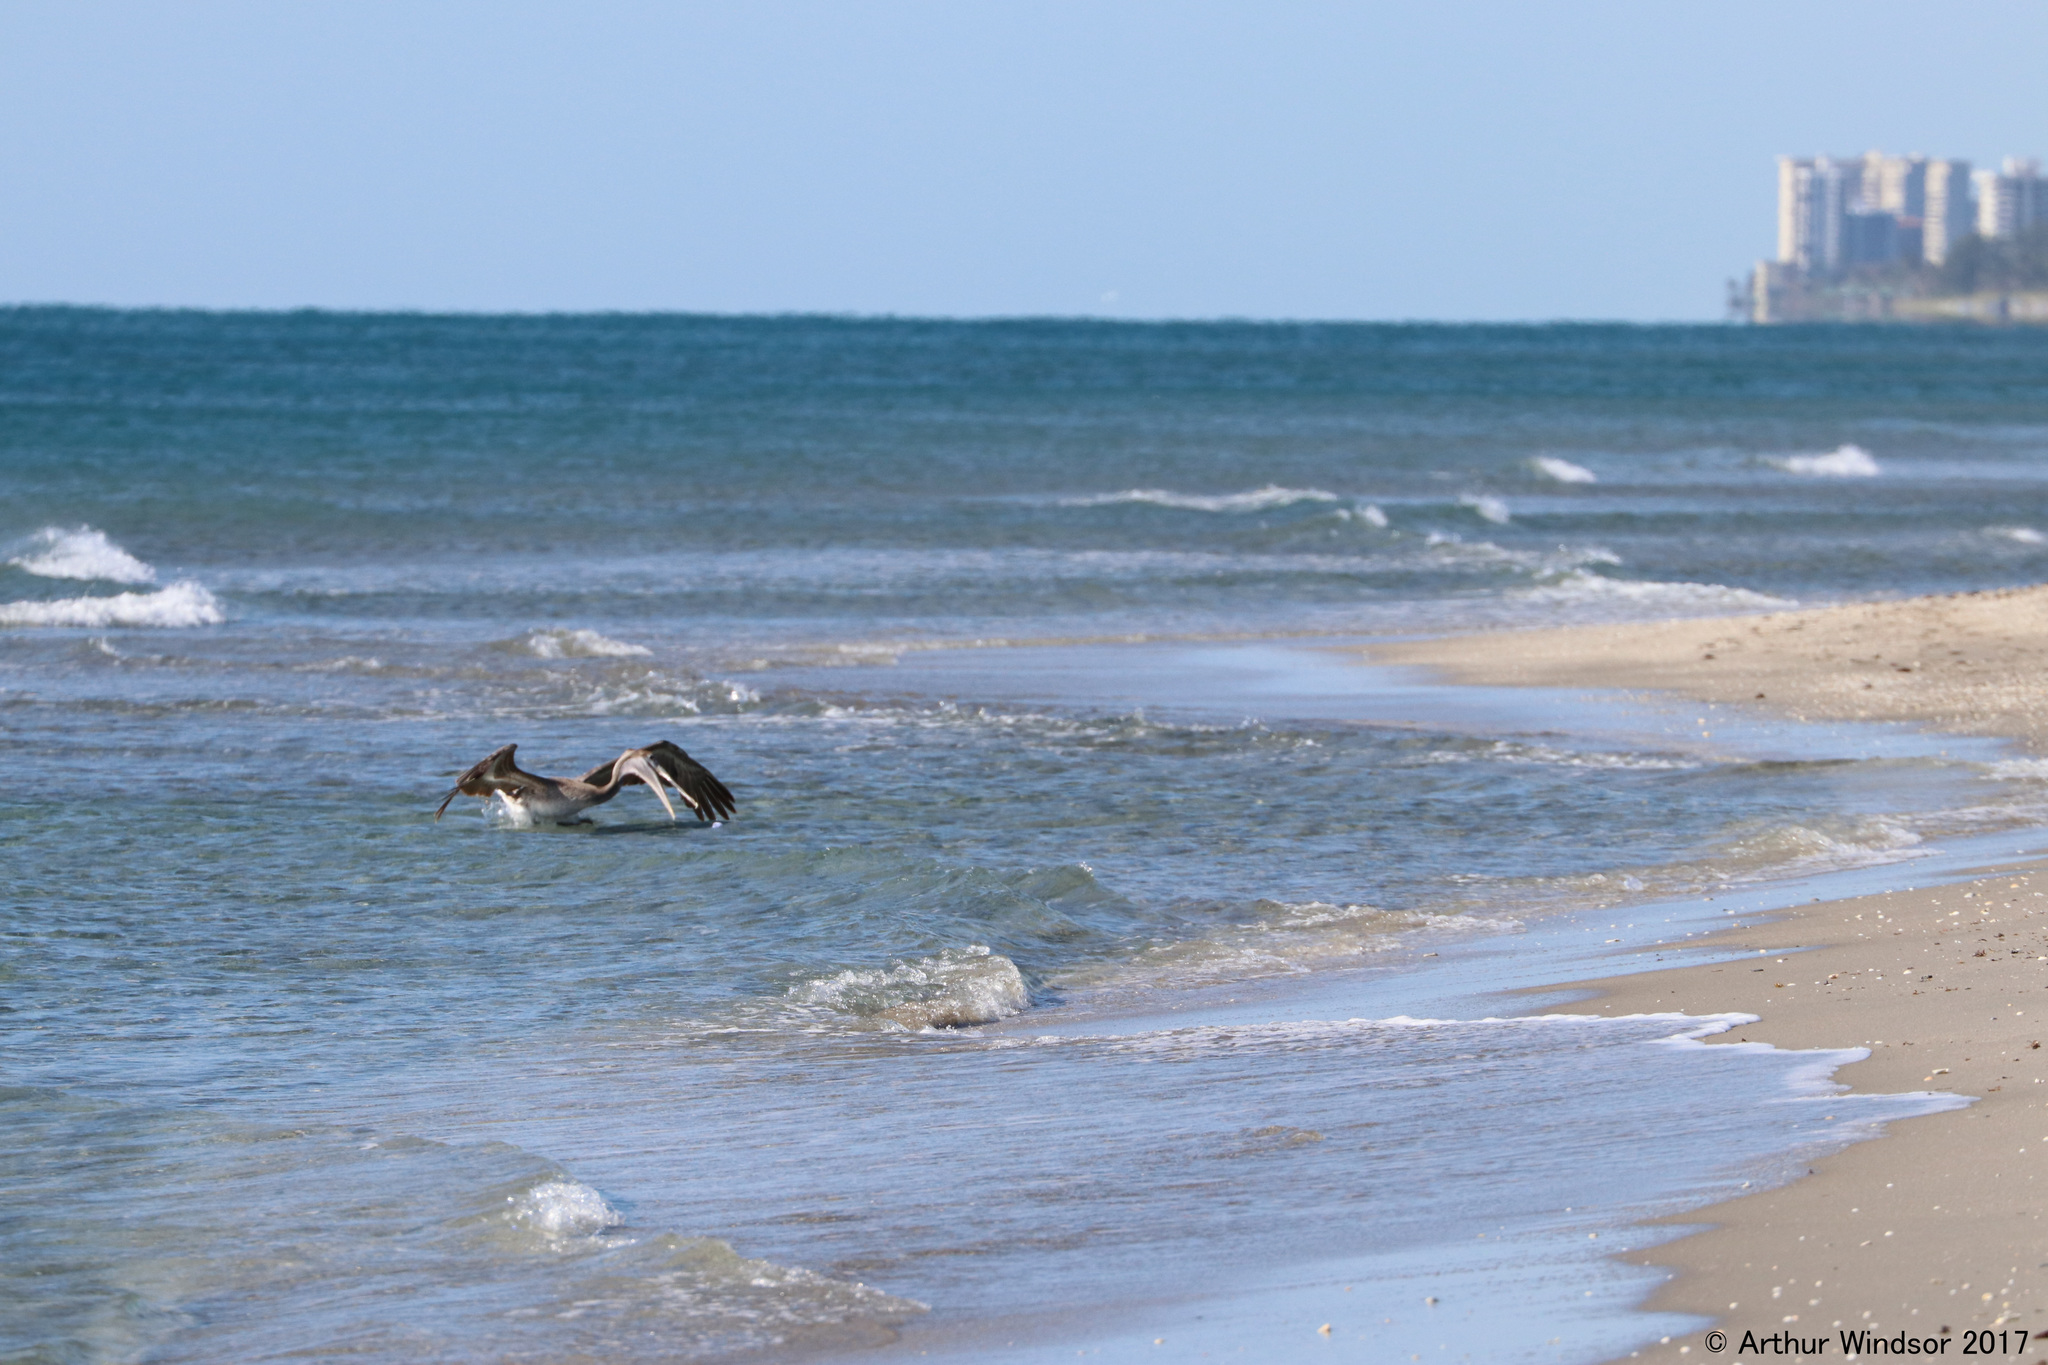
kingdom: Animalia
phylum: Chordata
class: Aves
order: Pelecaniformes
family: Pelecanidae
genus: Pelecanus
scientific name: Pelecanus occidentalis
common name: Brown pelican
